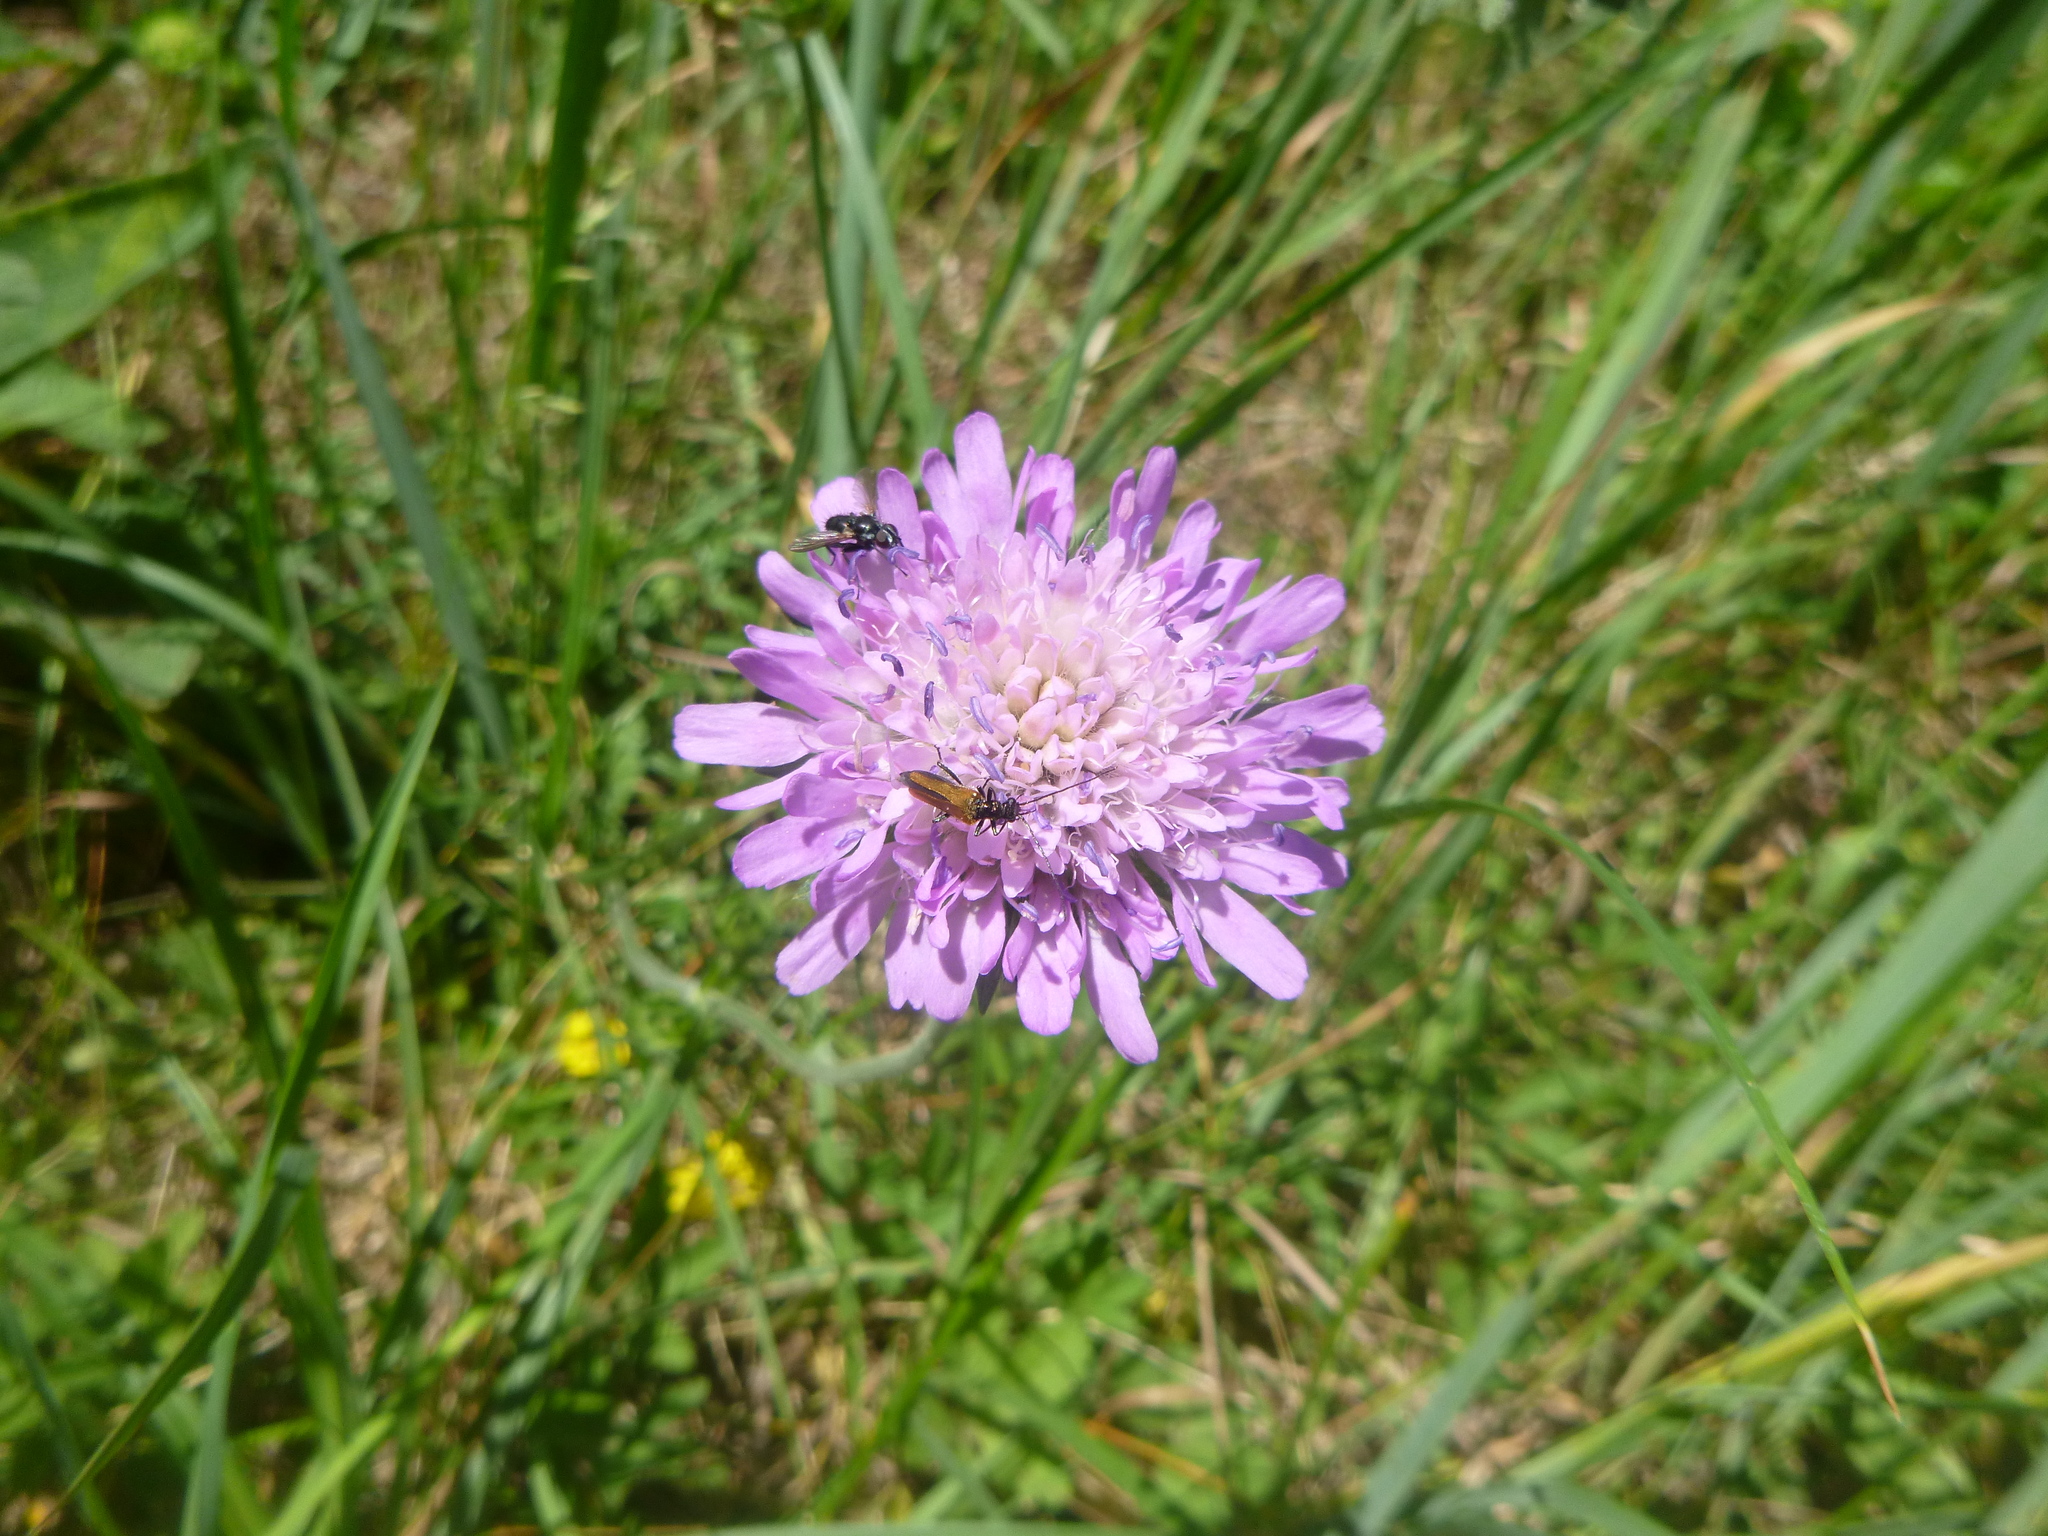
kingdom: Plantae
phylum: Tracheophyta
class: Magnoliopsida
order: Dipsacales
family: Caprifoliaceae
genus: Knautia
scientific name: Knautia arvensis
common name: Field scabiosa
